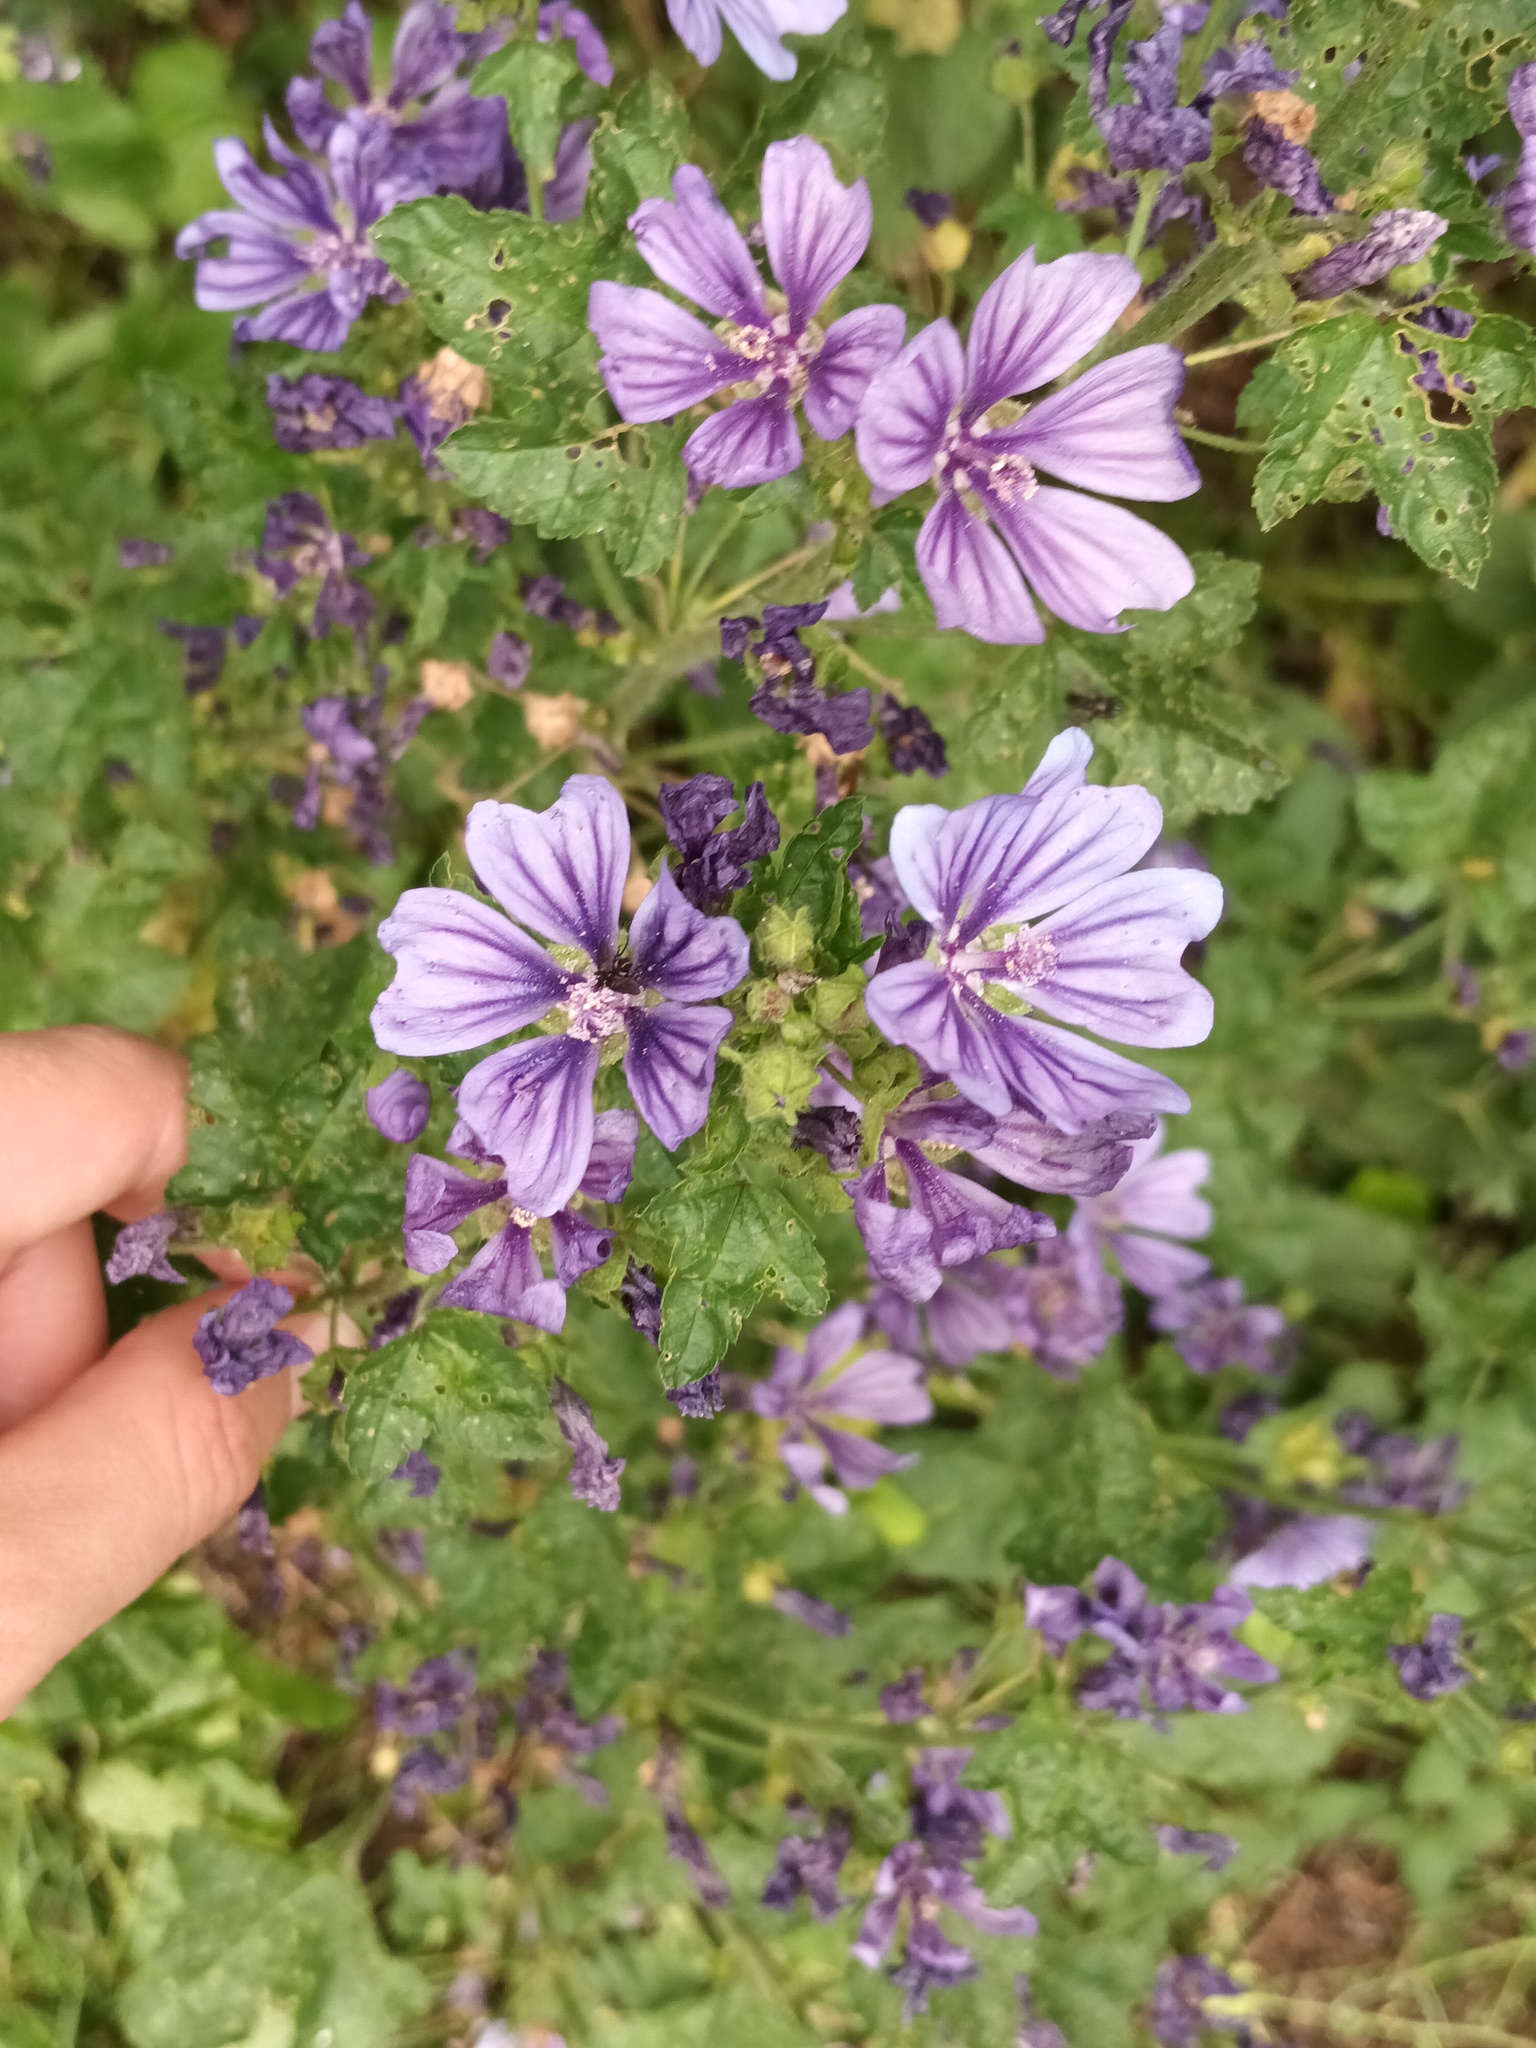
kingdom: Plantae
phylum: Tracheophyta
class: Magnoliopsida
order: Malvales
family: Malvaceae
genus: Malva
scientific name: Malva sylvestris
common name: Common mallow
